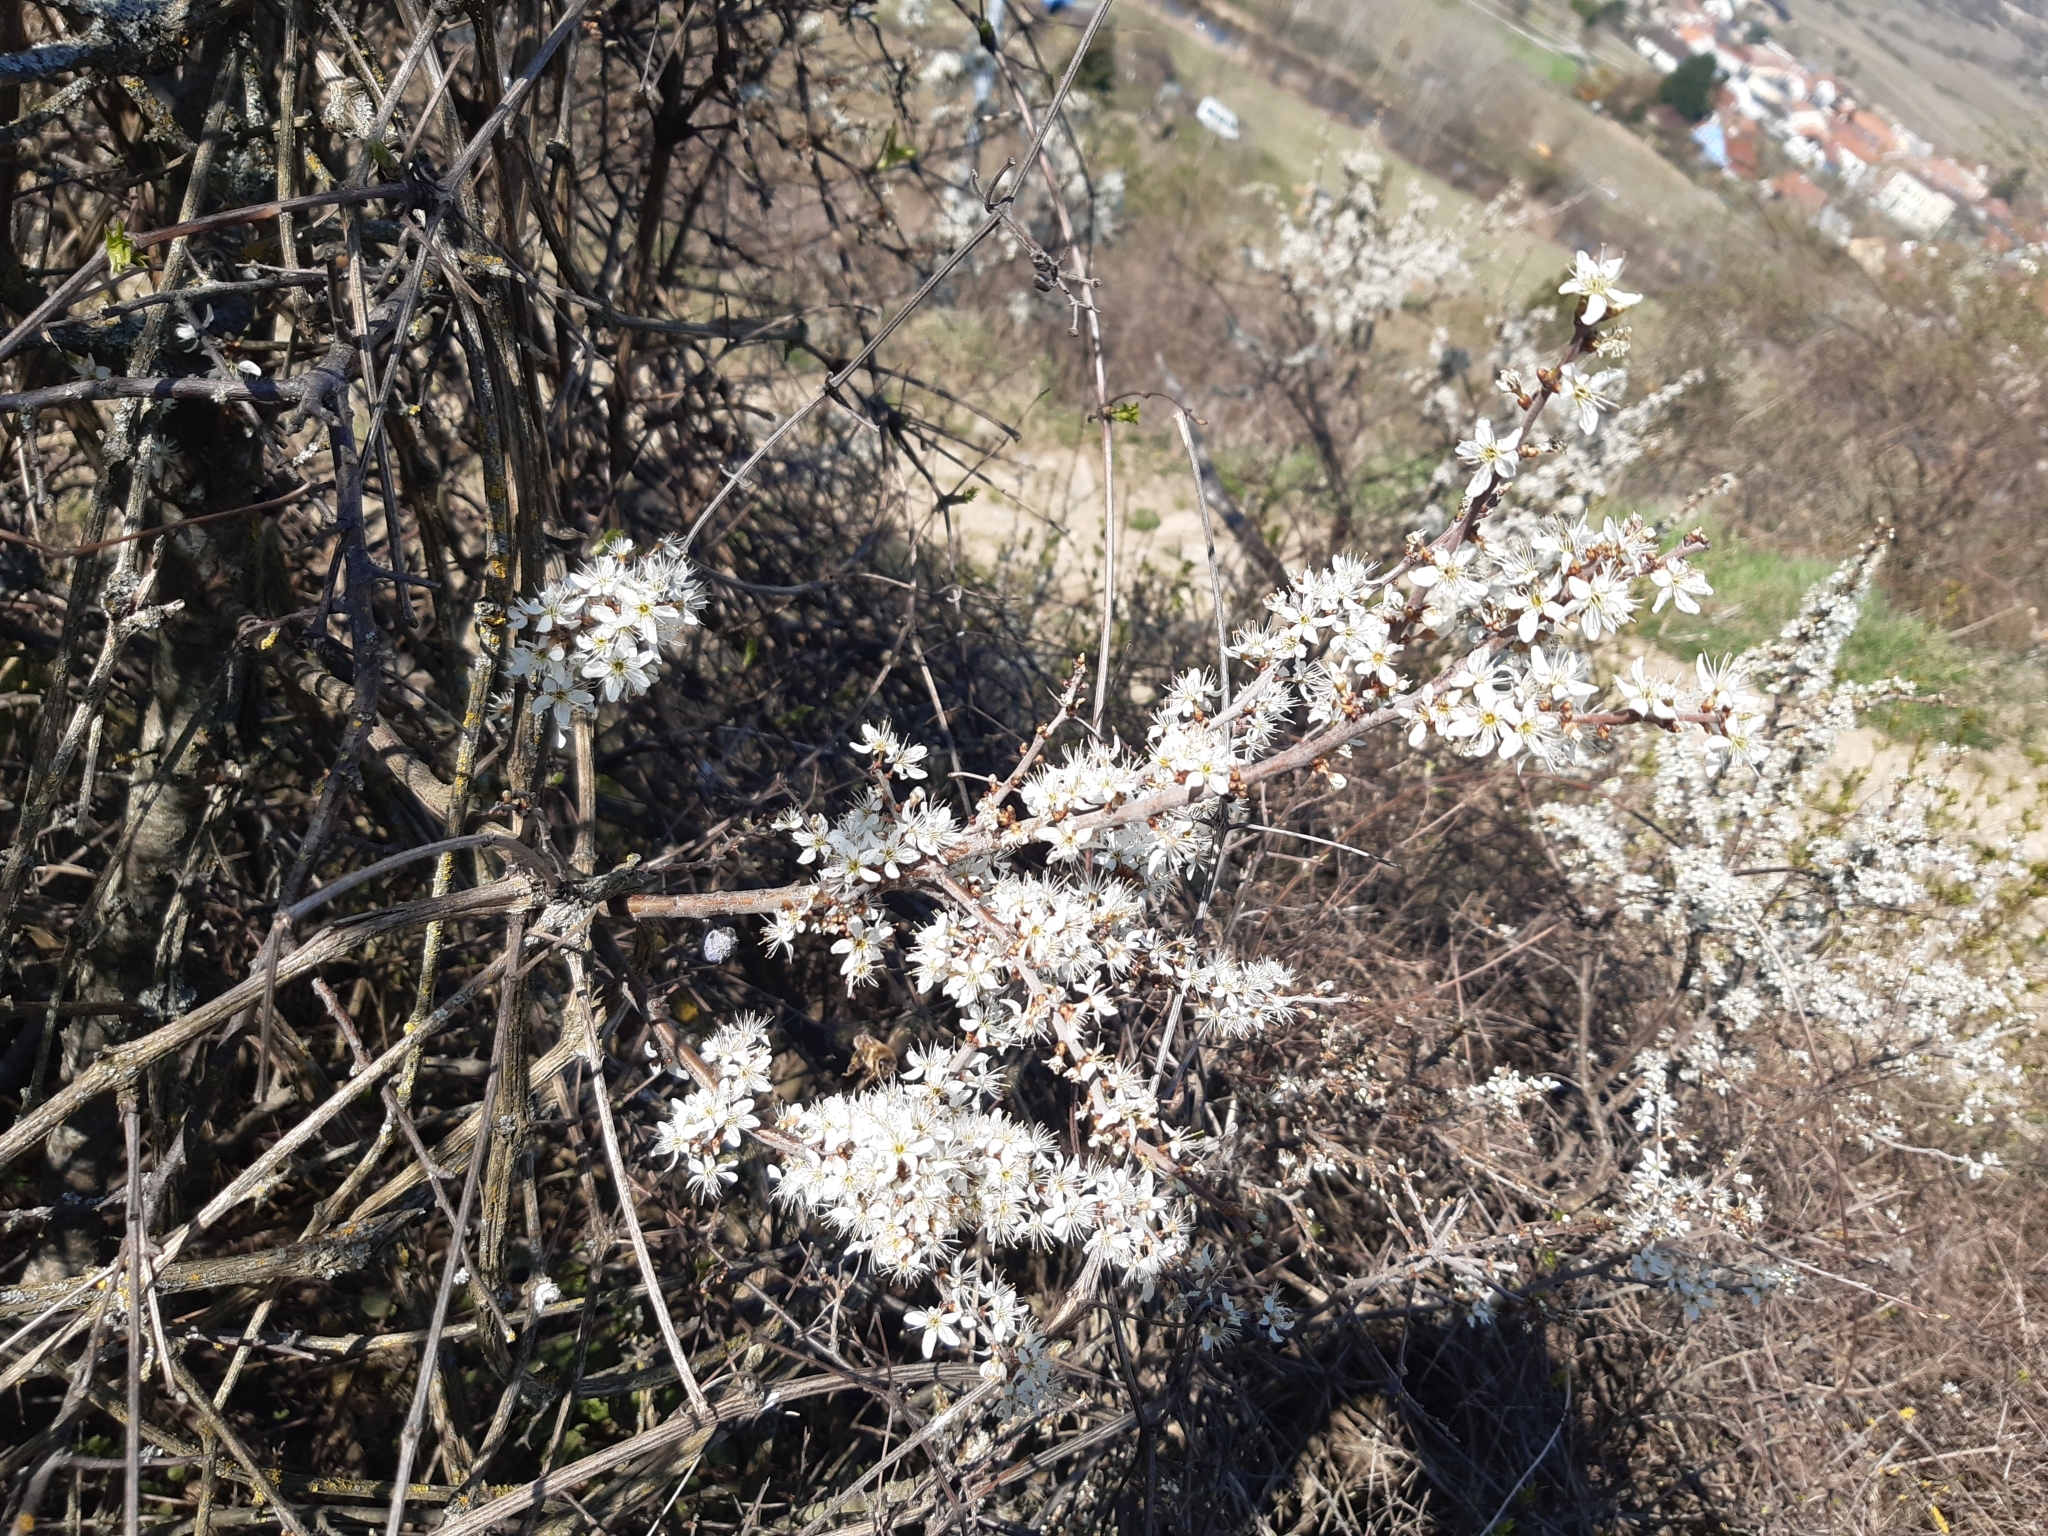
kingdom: Plantae
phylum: Tracheophyta
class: Magnoliopsida
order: Rosales
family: Rosaceae
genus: Prunus
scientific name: Prunus spinosa
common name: Blackthorn
